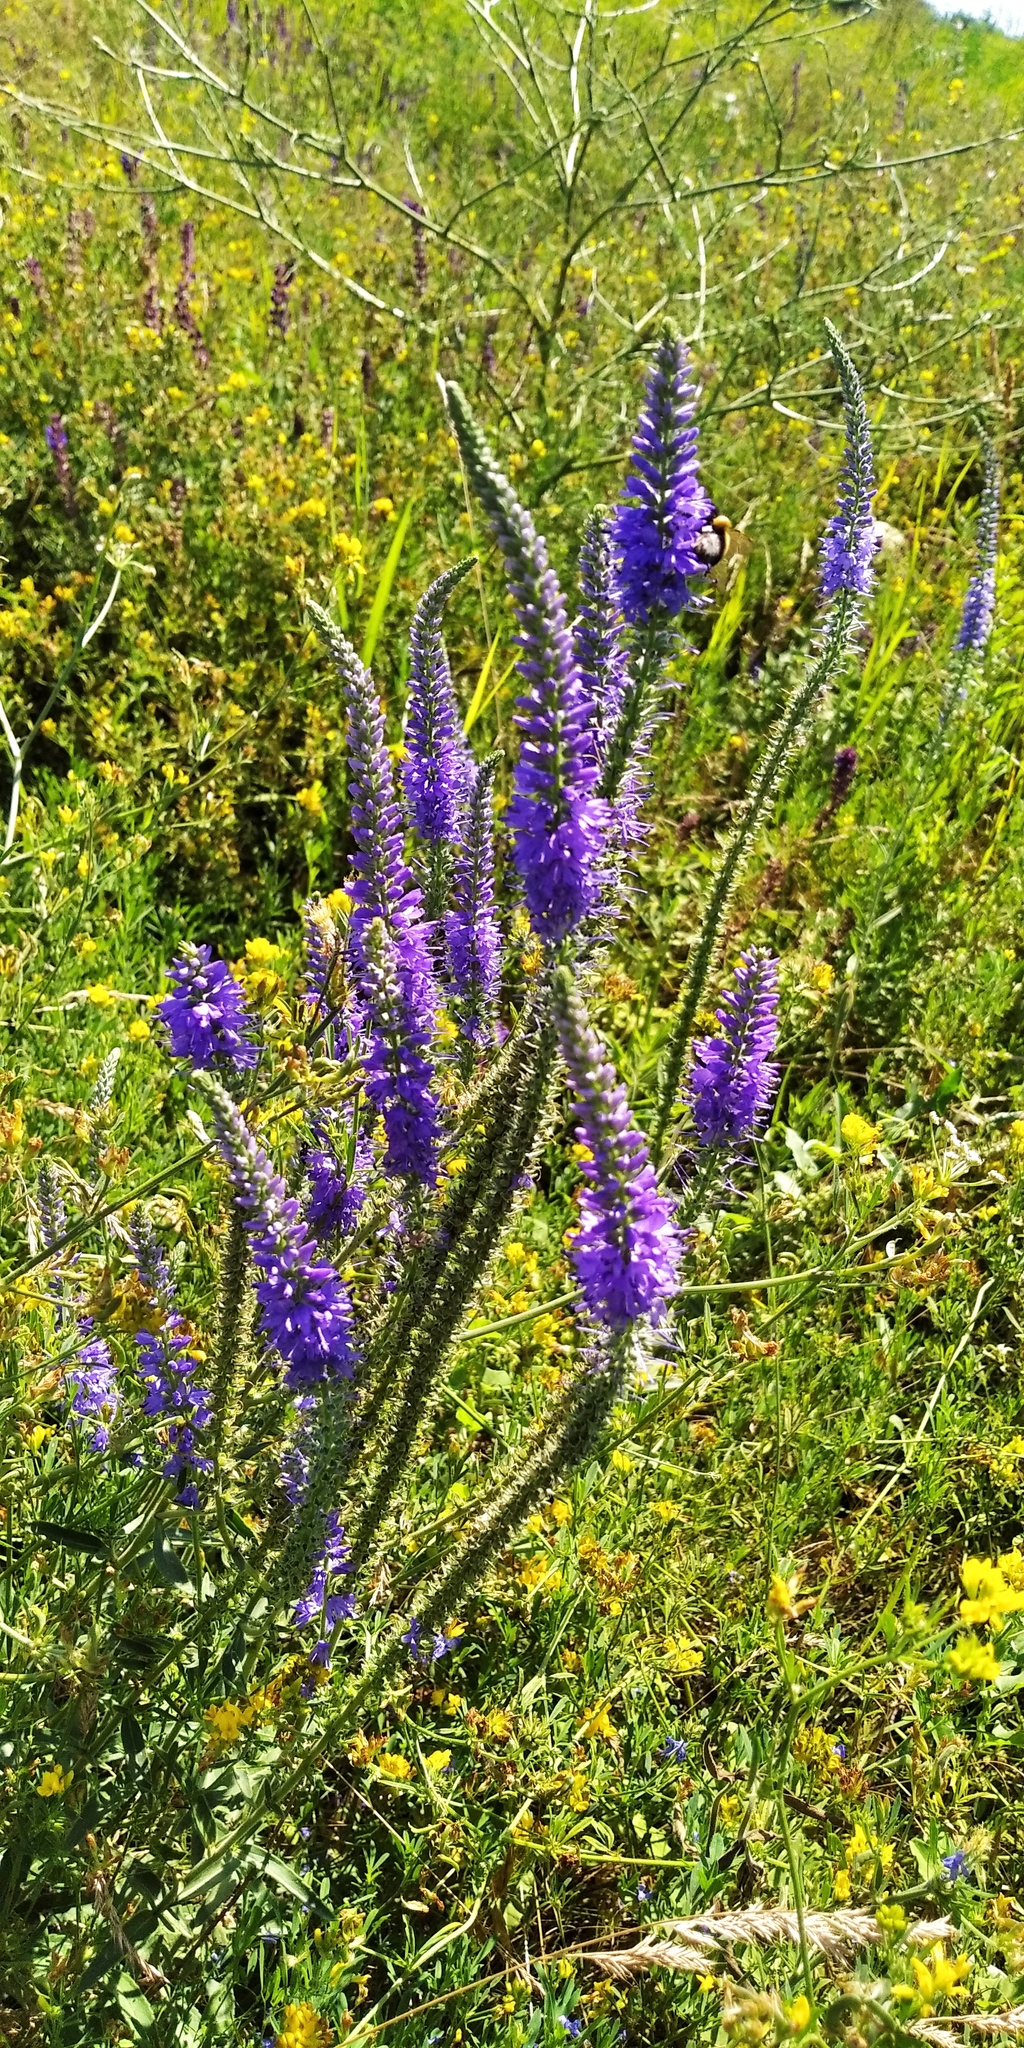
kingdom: Plantae
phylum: Tracheophyta
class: Magnoliopsida
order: Lamiales
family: Plantaginaceae
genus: Veronica
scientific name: Veronica barrelieri
